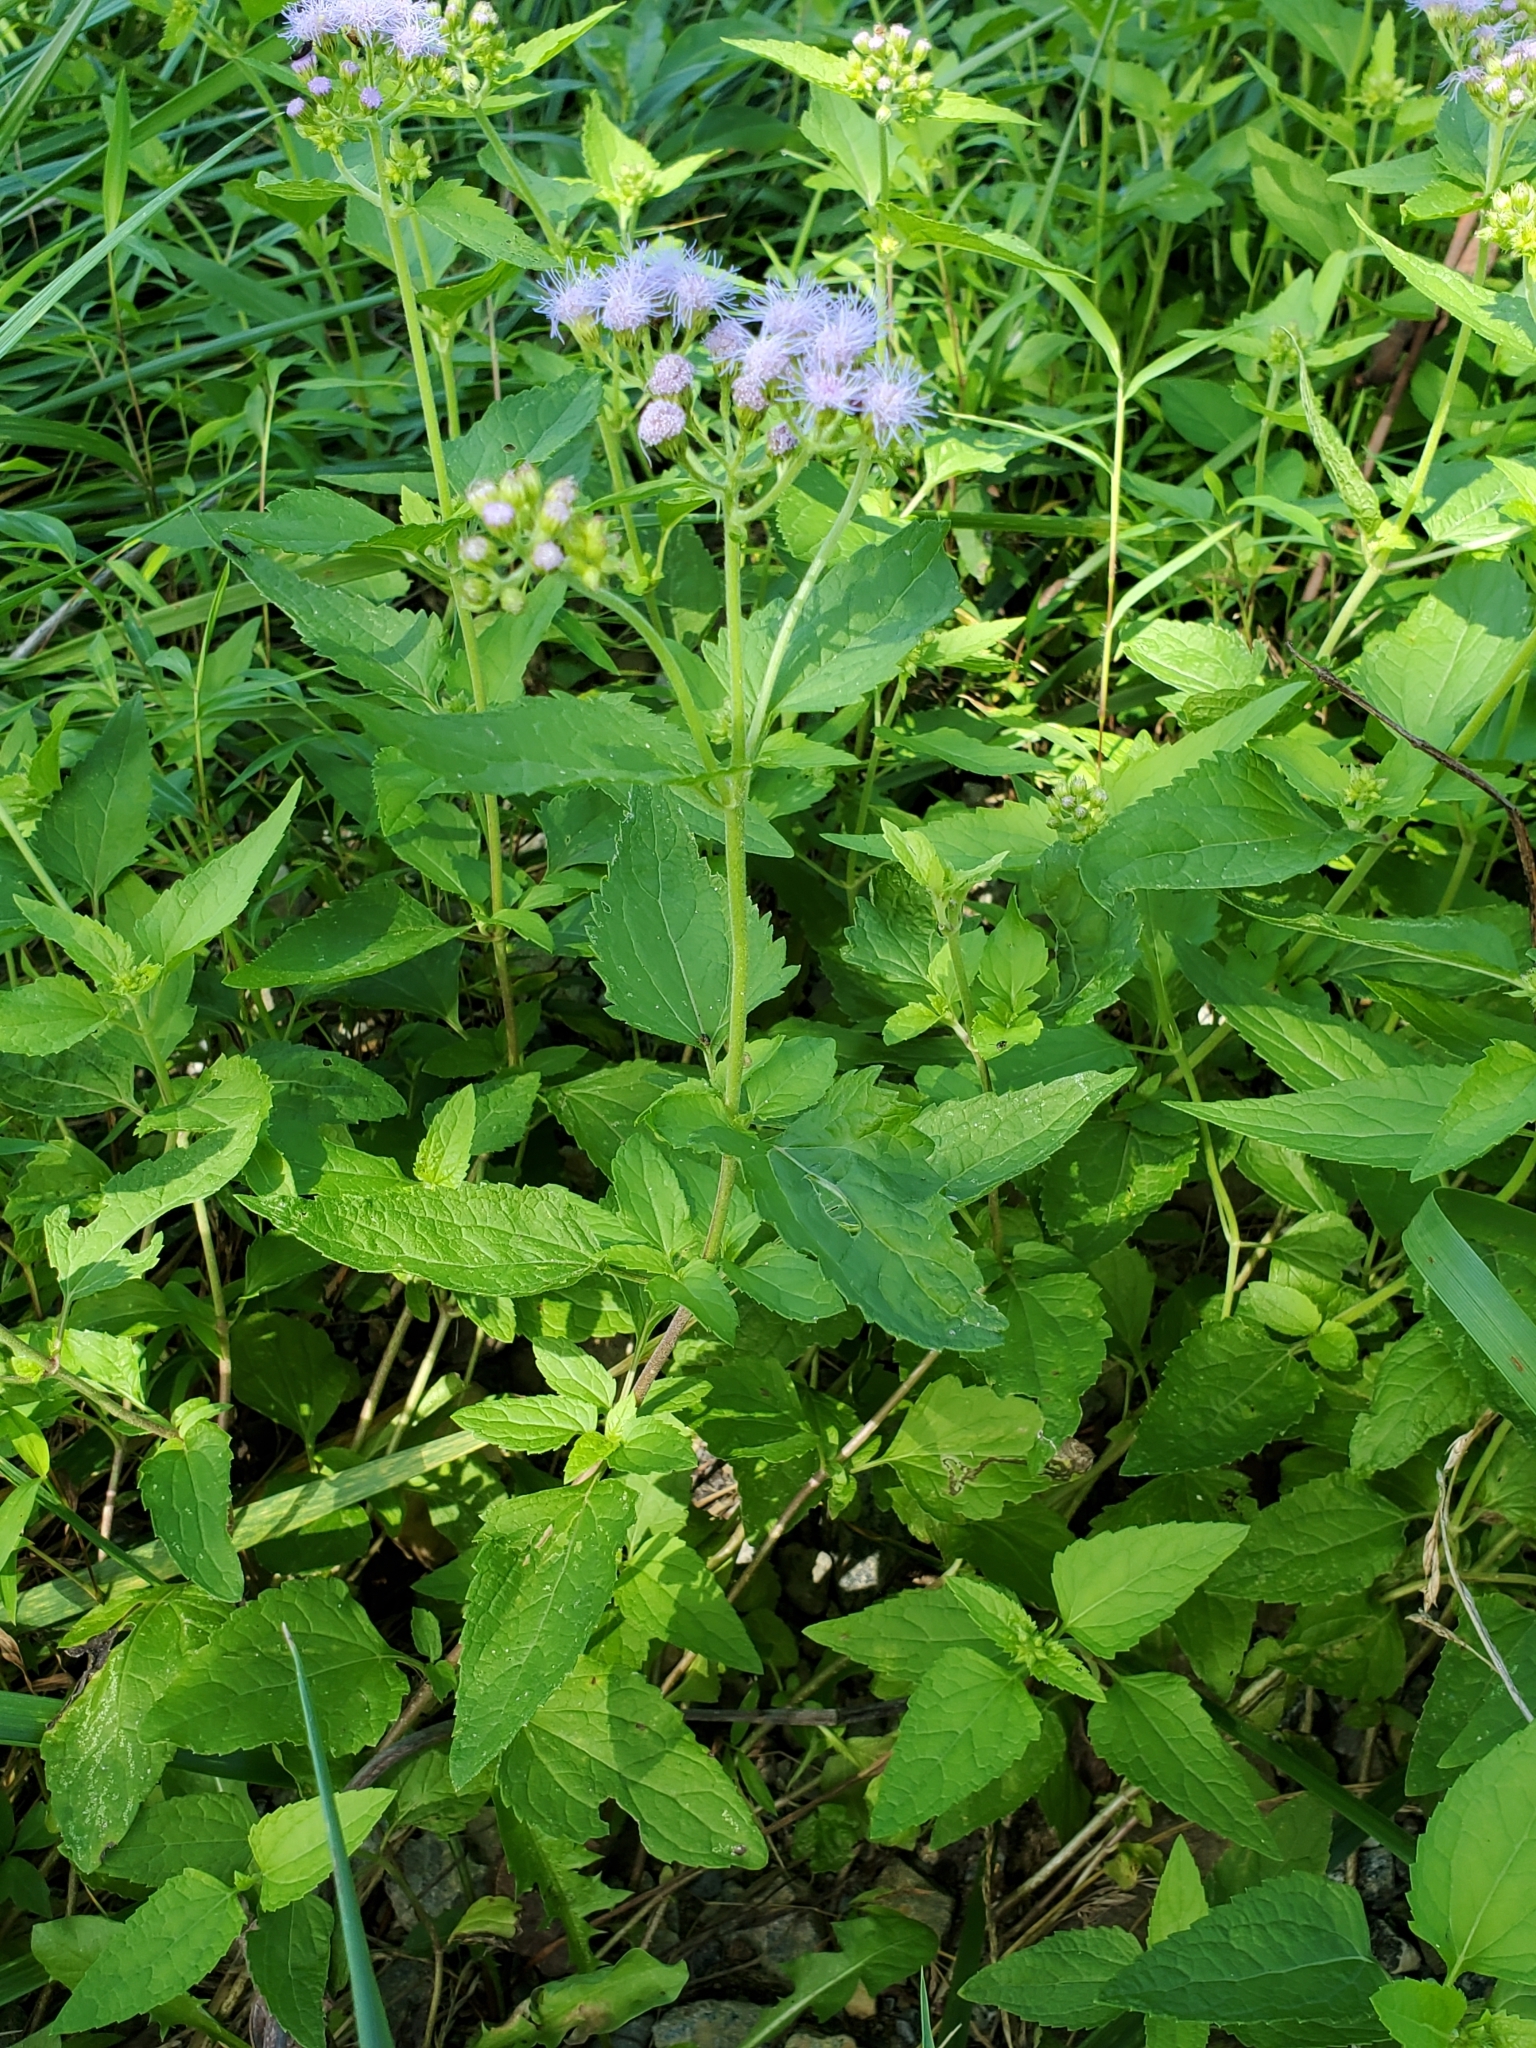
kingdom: Plantae
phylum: Tracheophyta
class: Magnoliopsida
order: Asterales
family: Asteraceae
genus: Conoclinium
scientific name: Conoclinium coelestinum
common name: Blue mistflower
